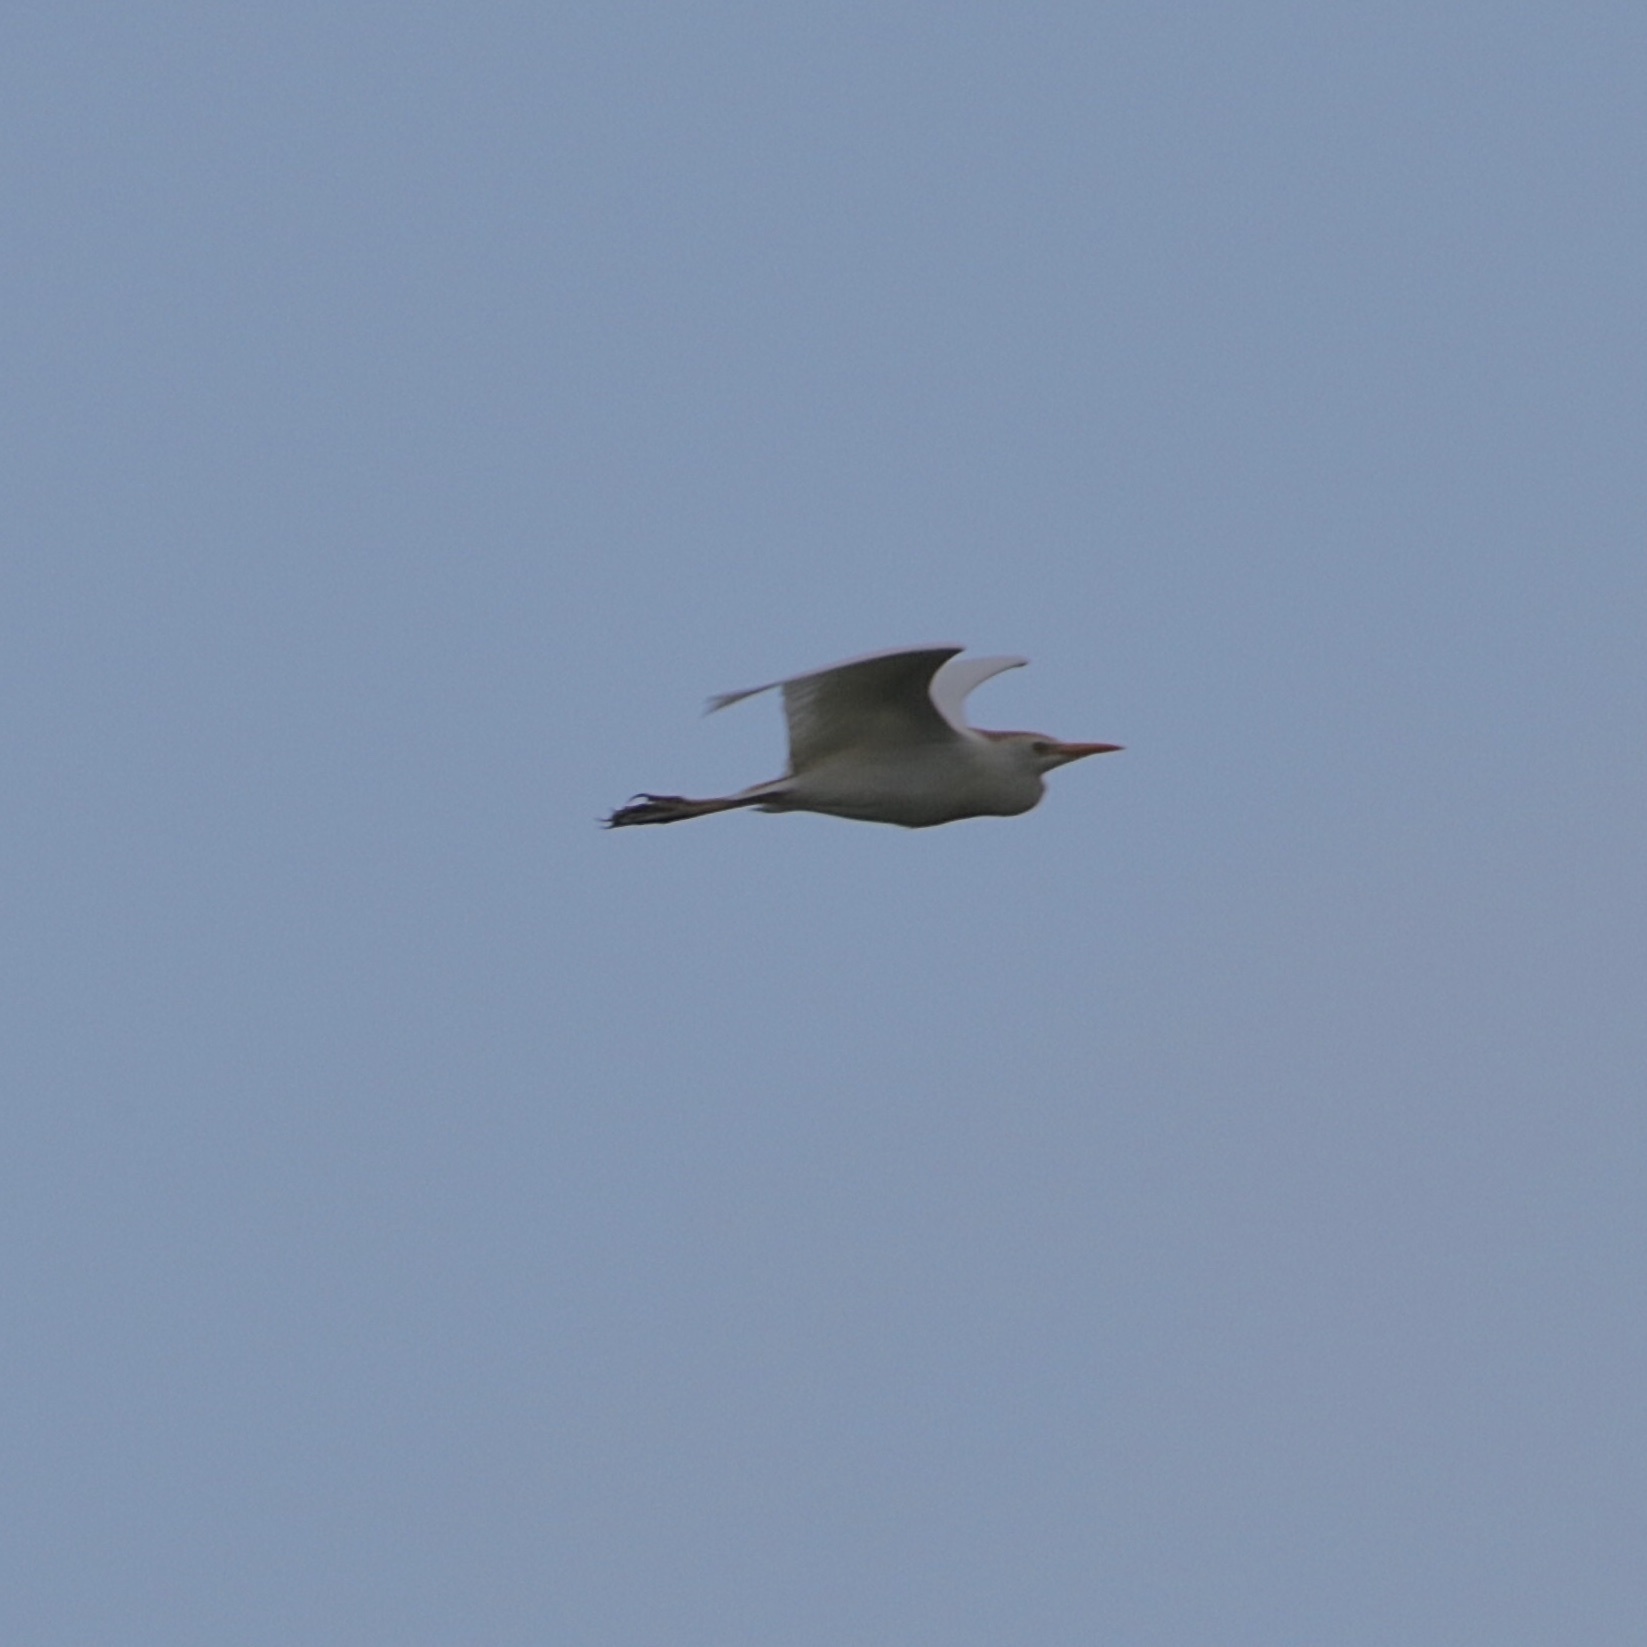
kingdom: Animalia
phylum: Chordata
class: Aves
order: Pelecaniformes
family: Ardeidae
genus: Bubulcus
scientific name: Bubulcus ibis
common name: Cattle egret
